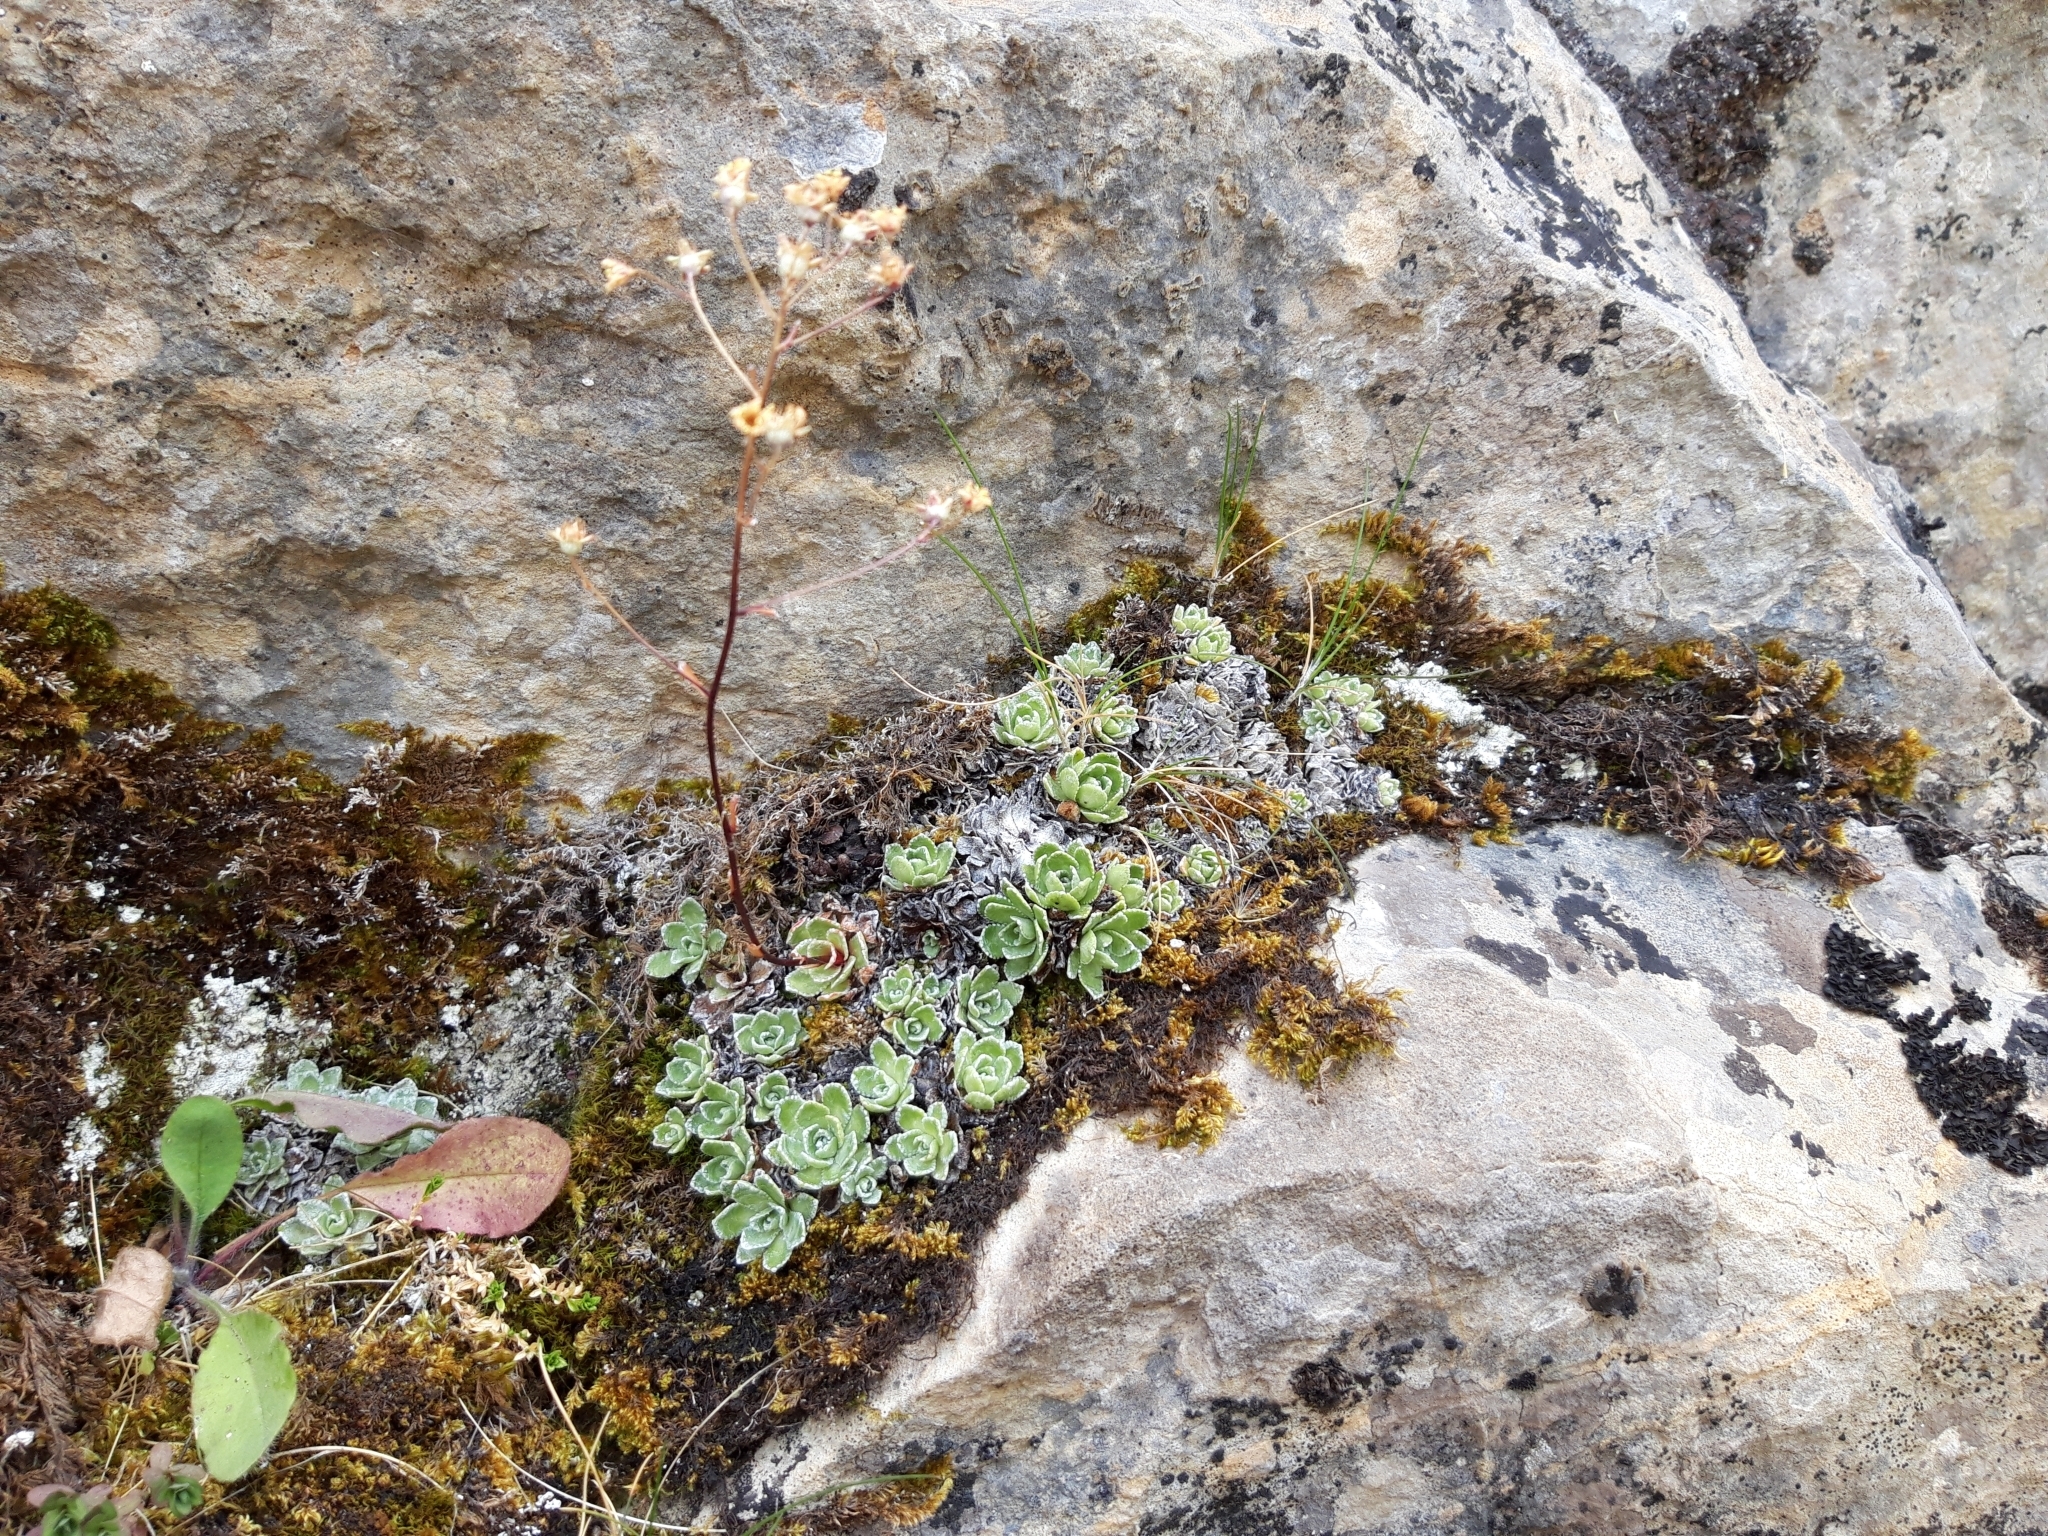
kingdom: Plantae
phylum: Tracheophyta
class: Magnoliopsida
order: Saxifragales
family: Saxifragaceae
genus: Saxifraga
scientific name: Saxifraga paniculata
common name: Livelong saxifrage
